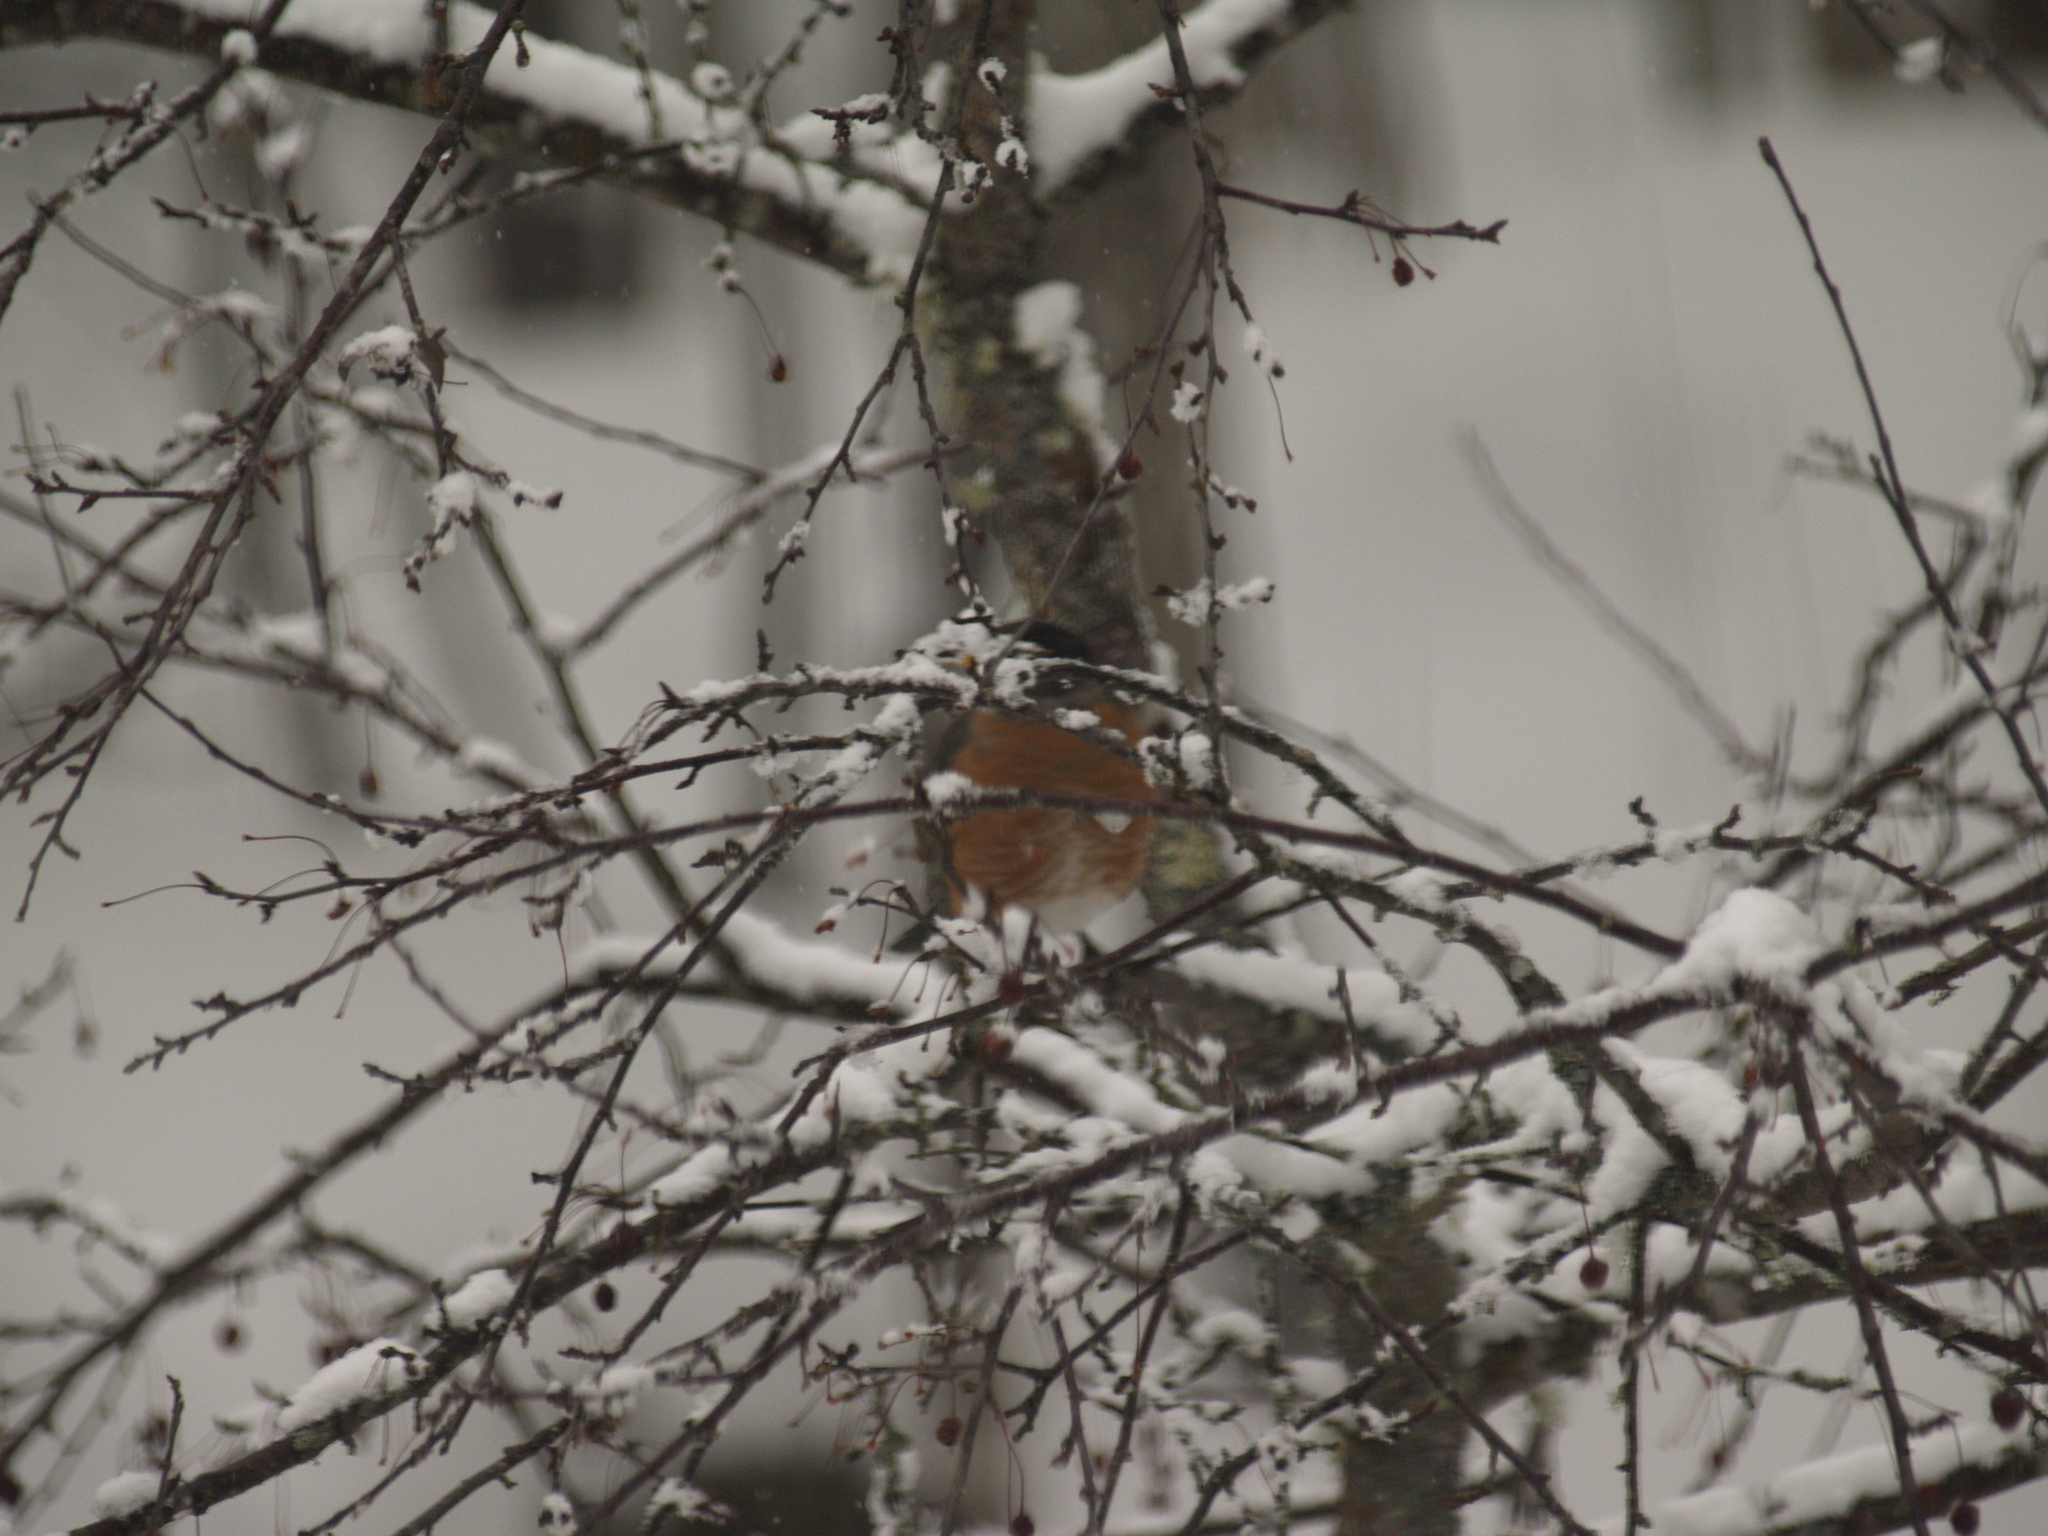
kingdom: Animalia
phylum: Chordata
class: Aves
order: Passeriformes
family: Turdidae
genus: Turdus
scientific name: Turdus migratorius
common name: American robin
